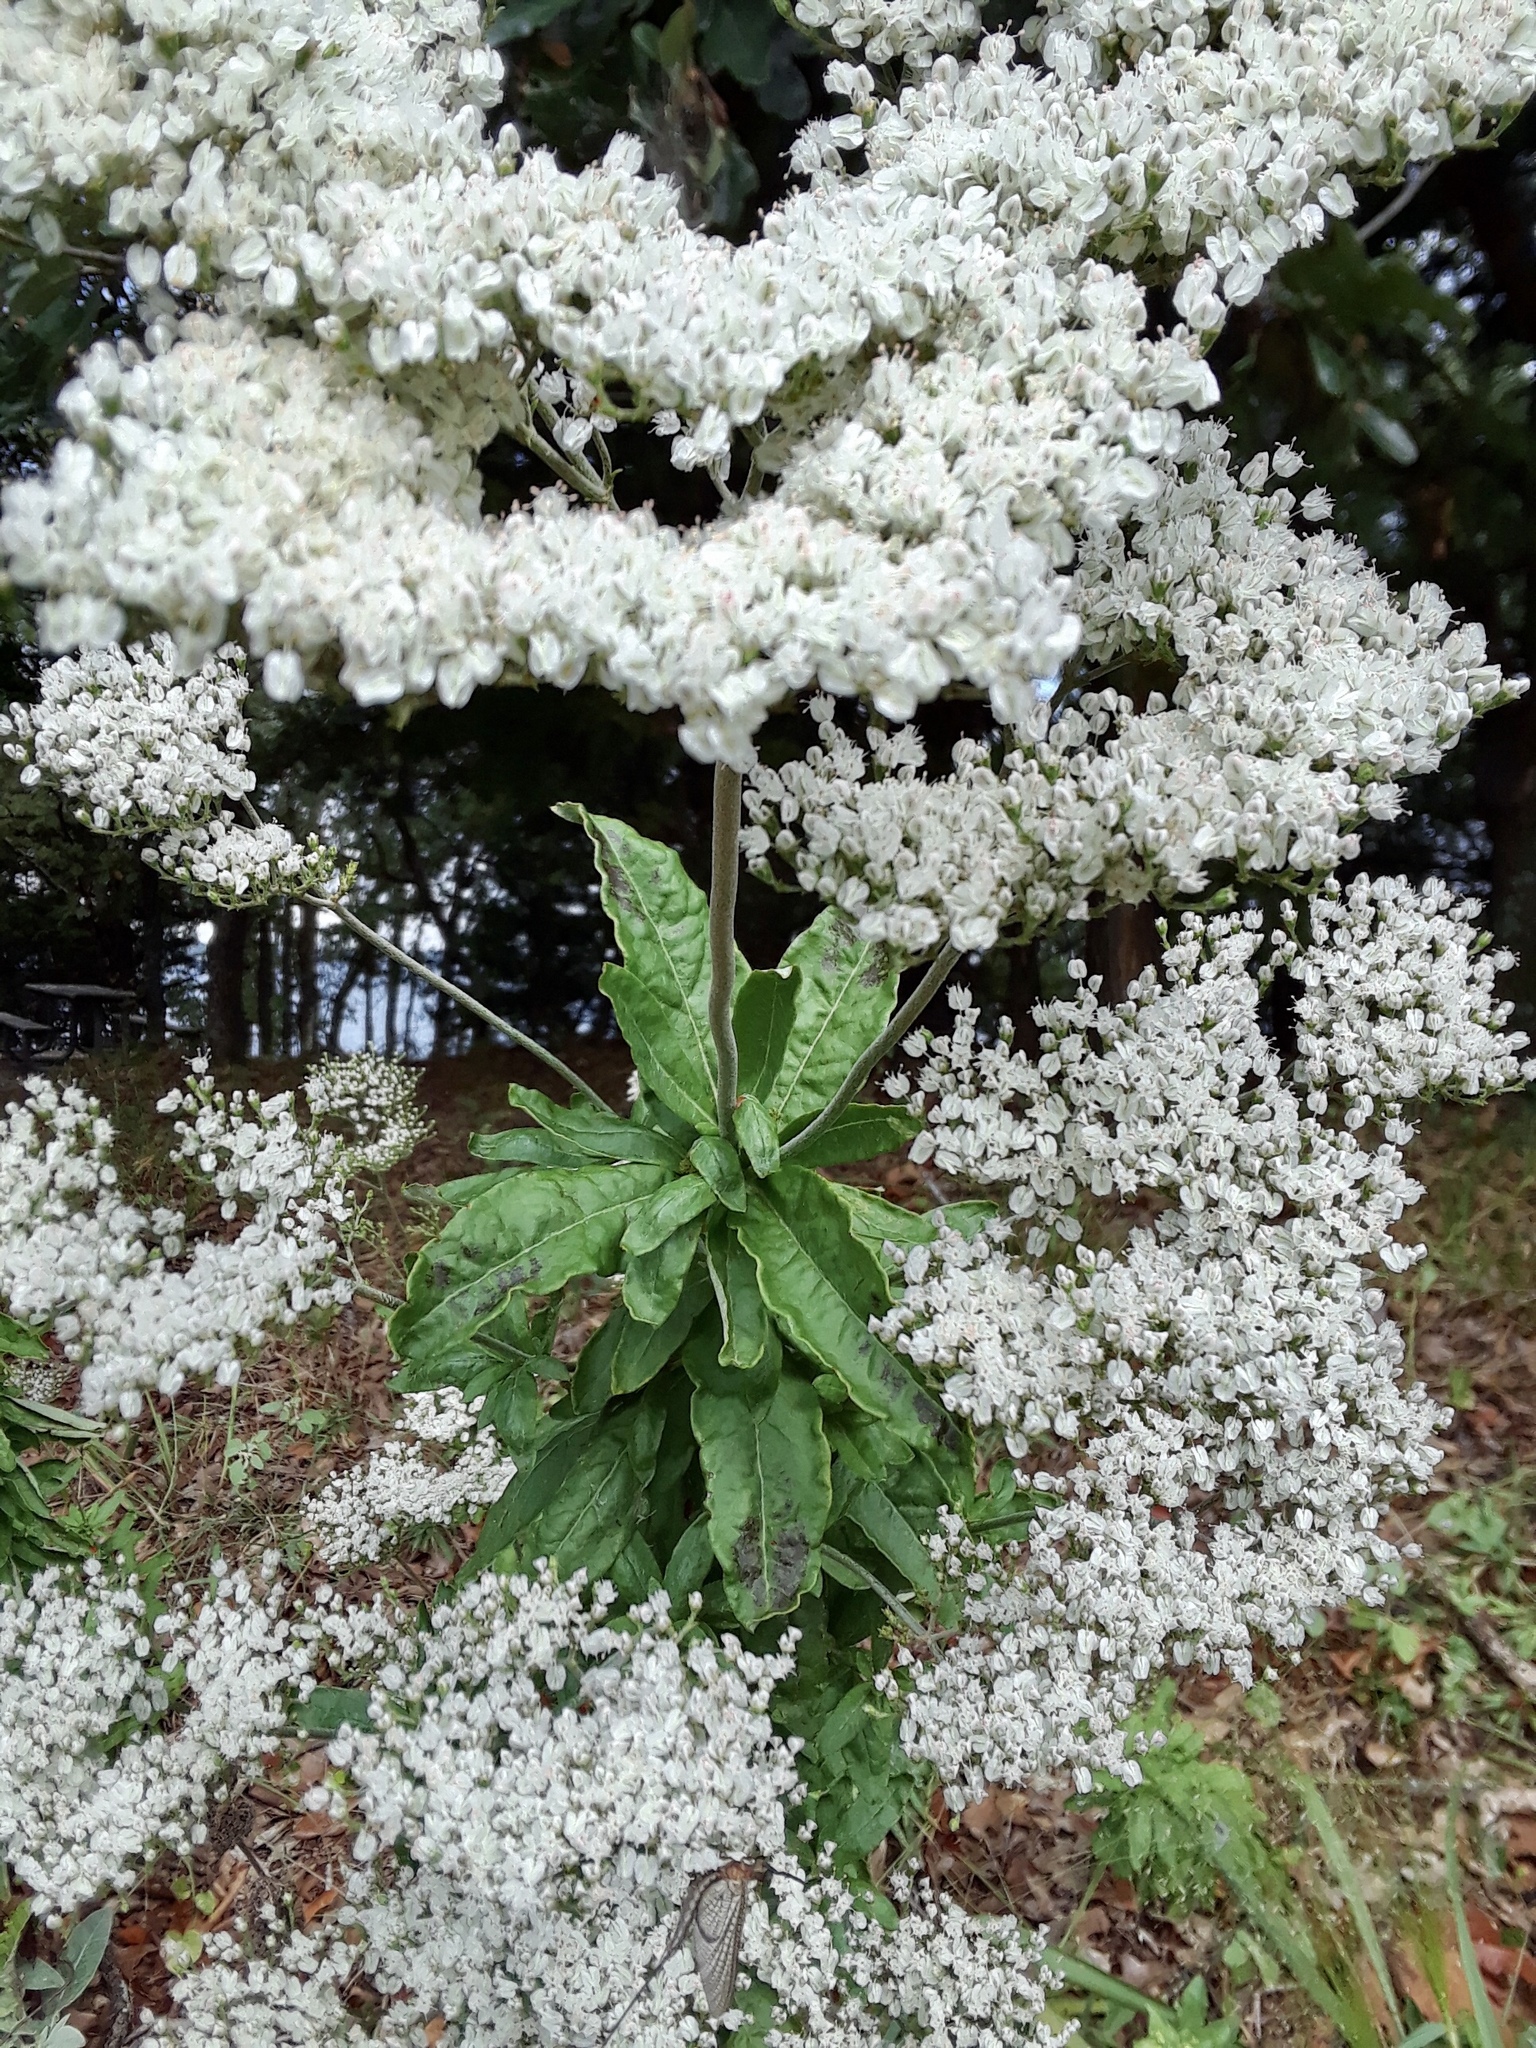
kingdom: Plantae
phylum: Tracheophyta
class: Magnoliopsida
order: Asterales
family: Asteraceae
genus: Eupatorium
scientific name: Eupatorium perfoliatum
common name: Boneset
